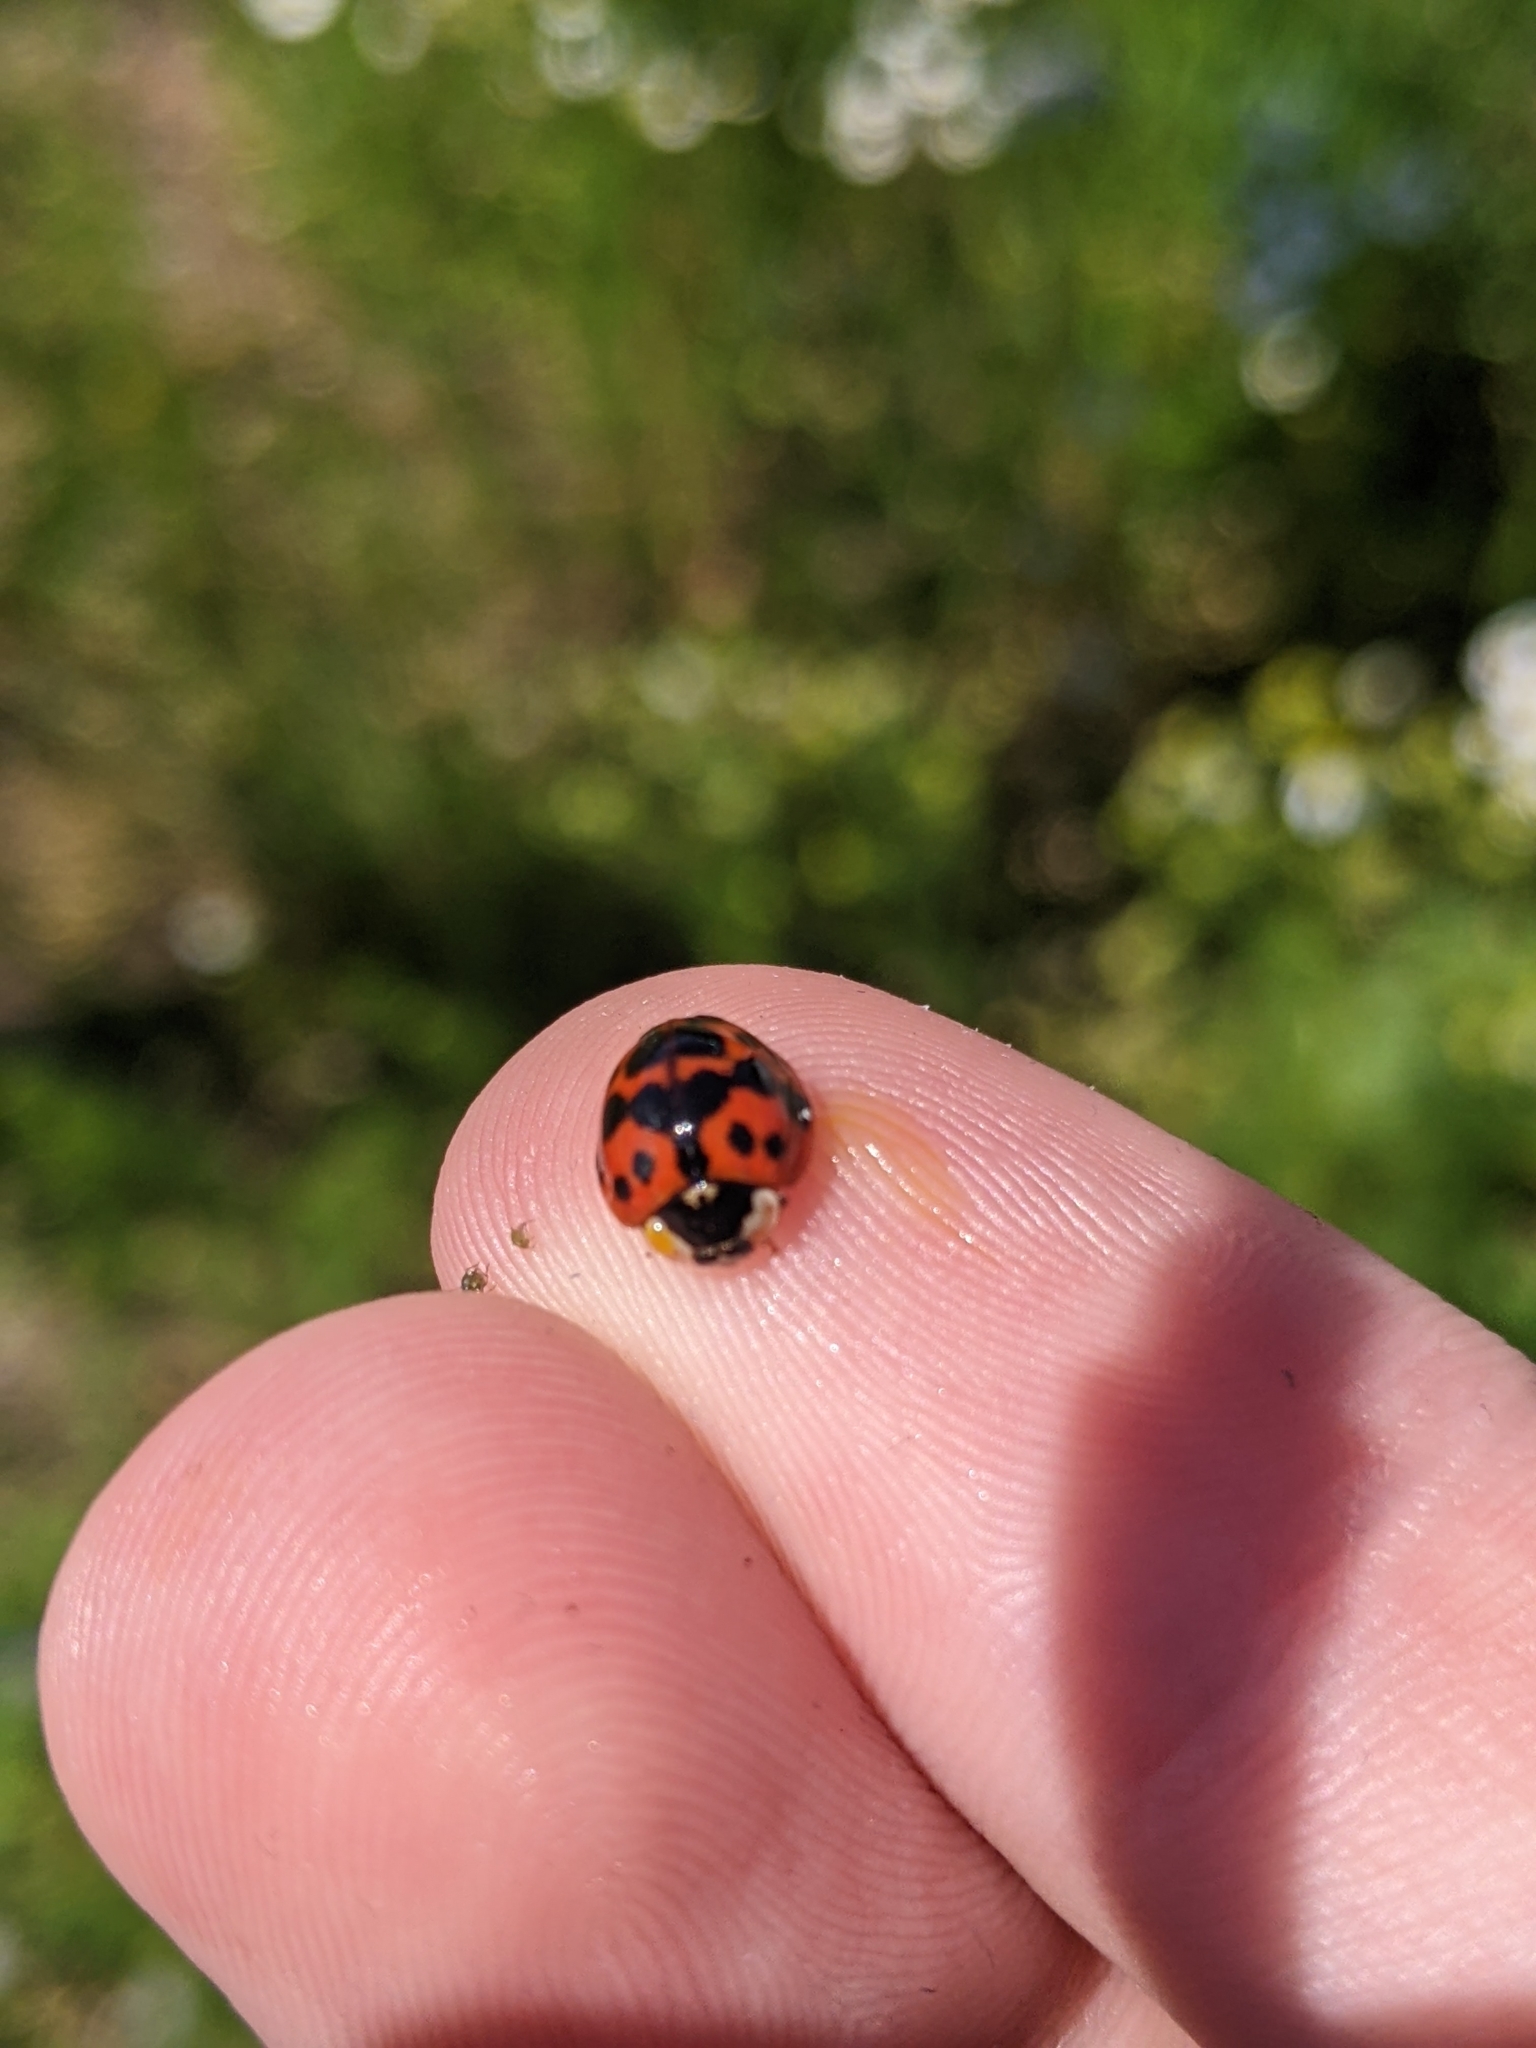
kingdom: Animalia
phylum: Arthropoda
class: Insecta
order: Coleoptera
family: Coccinellidae
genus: Harmonia
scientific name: Harmonia axyridis
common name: Harlequin ladybird
